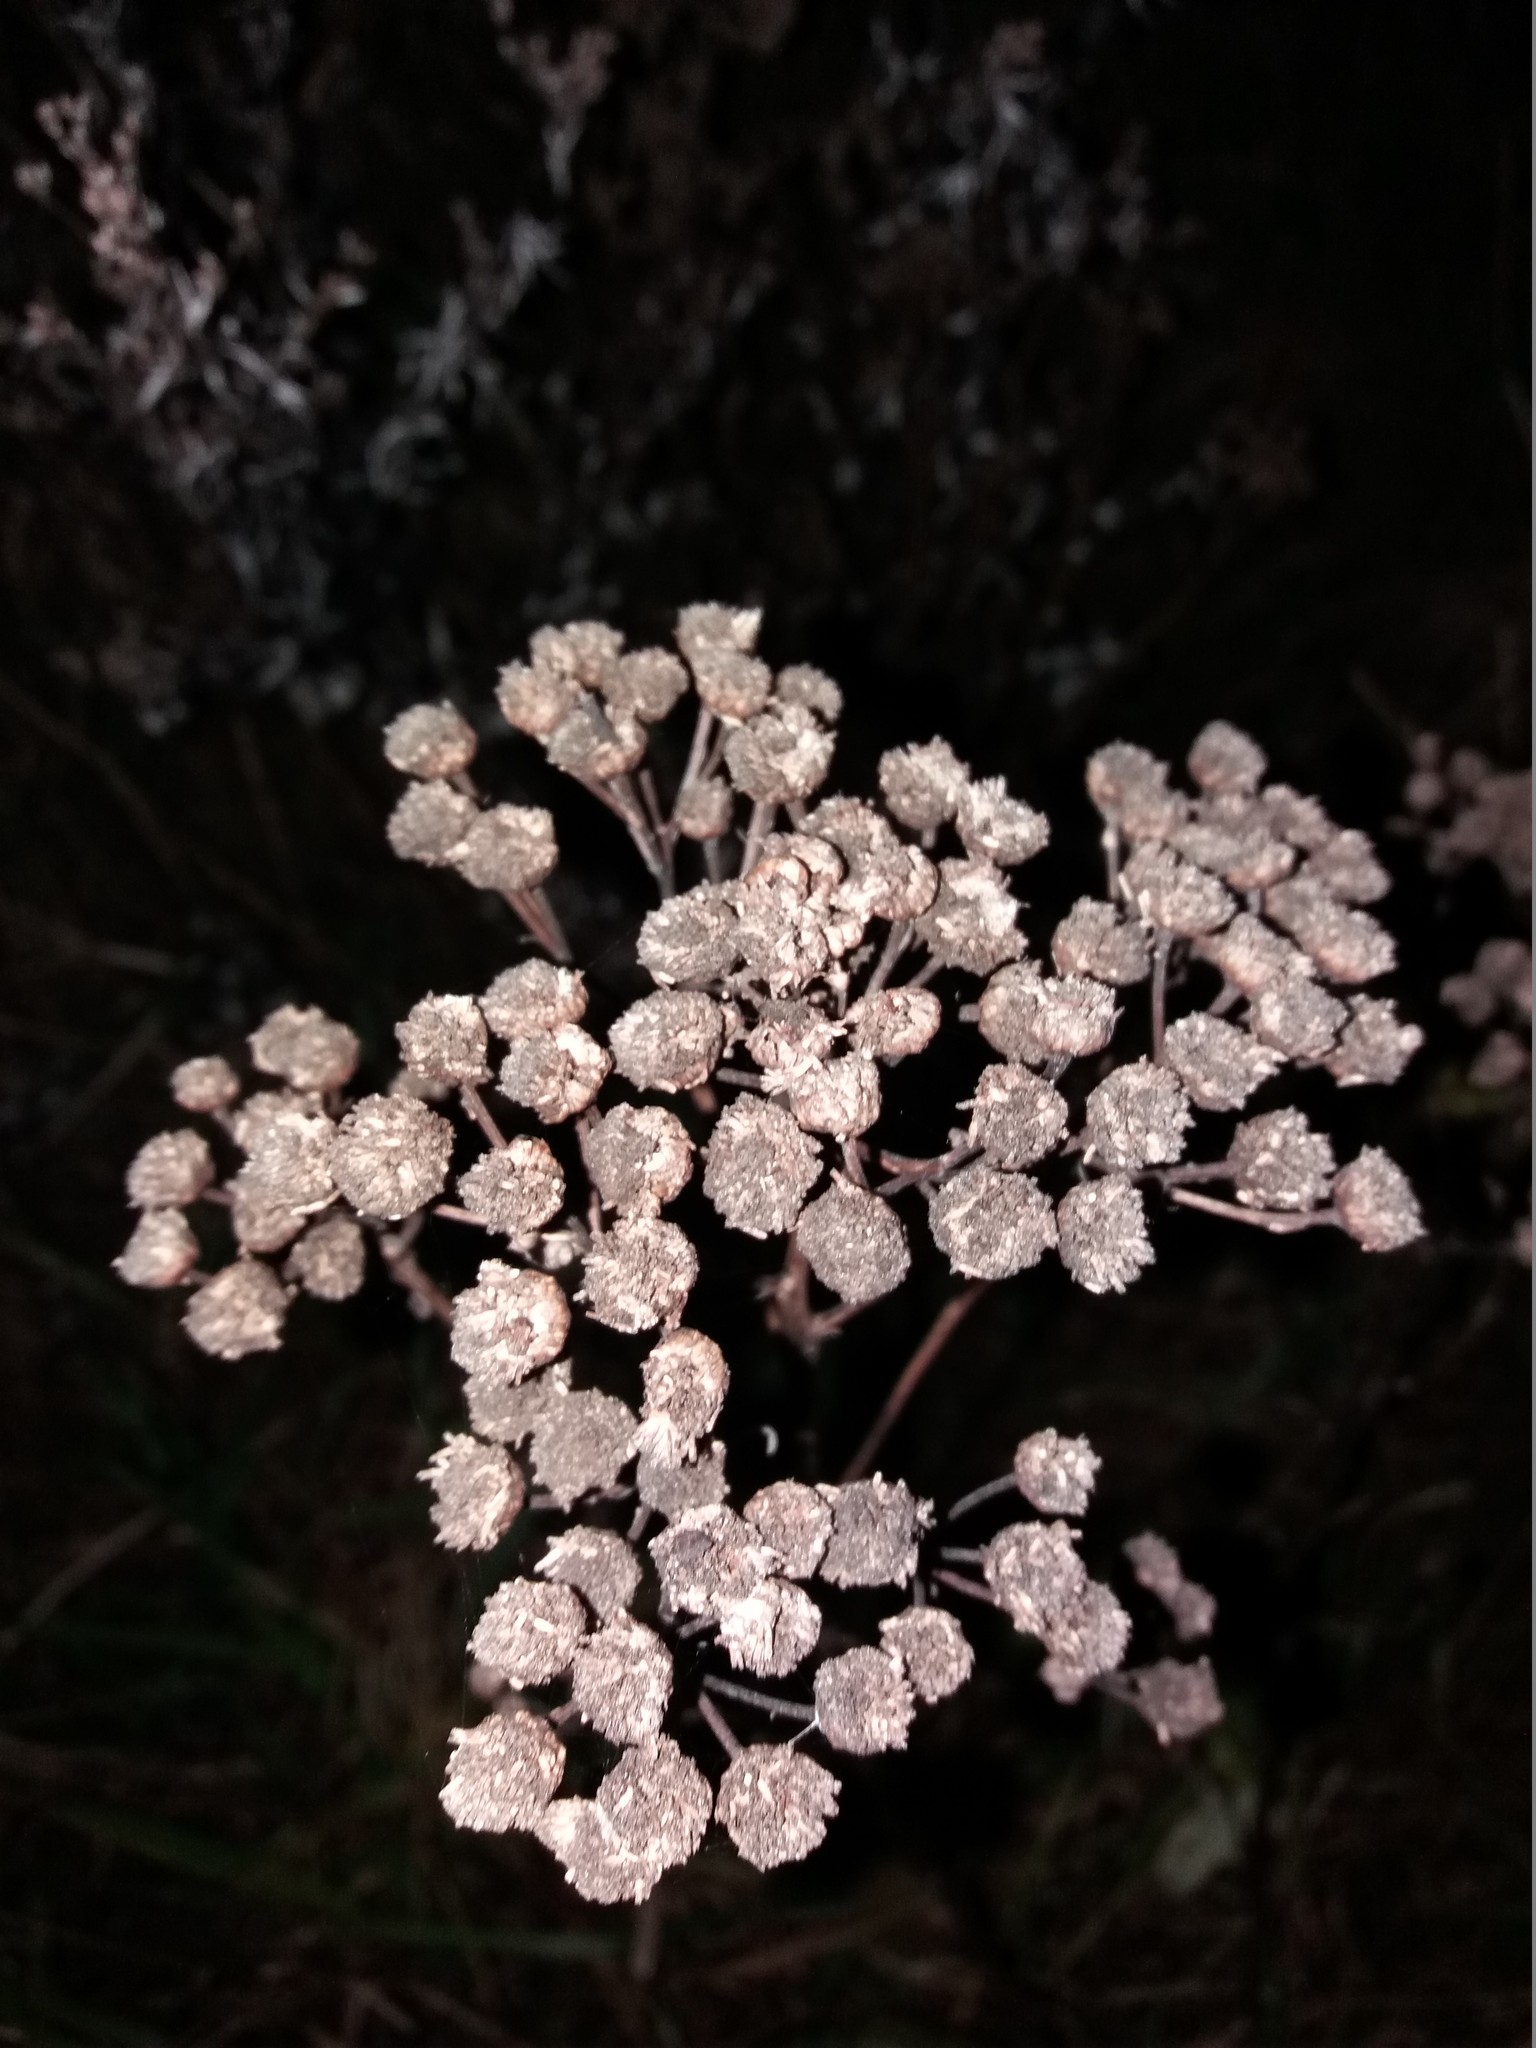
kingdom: Plantae
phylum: Tracheophyta
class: Magnoliopsida
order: Asterales
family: Asteraceae
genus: Tanacetum
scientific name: Tanacetum vulgare
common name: Common tansy
